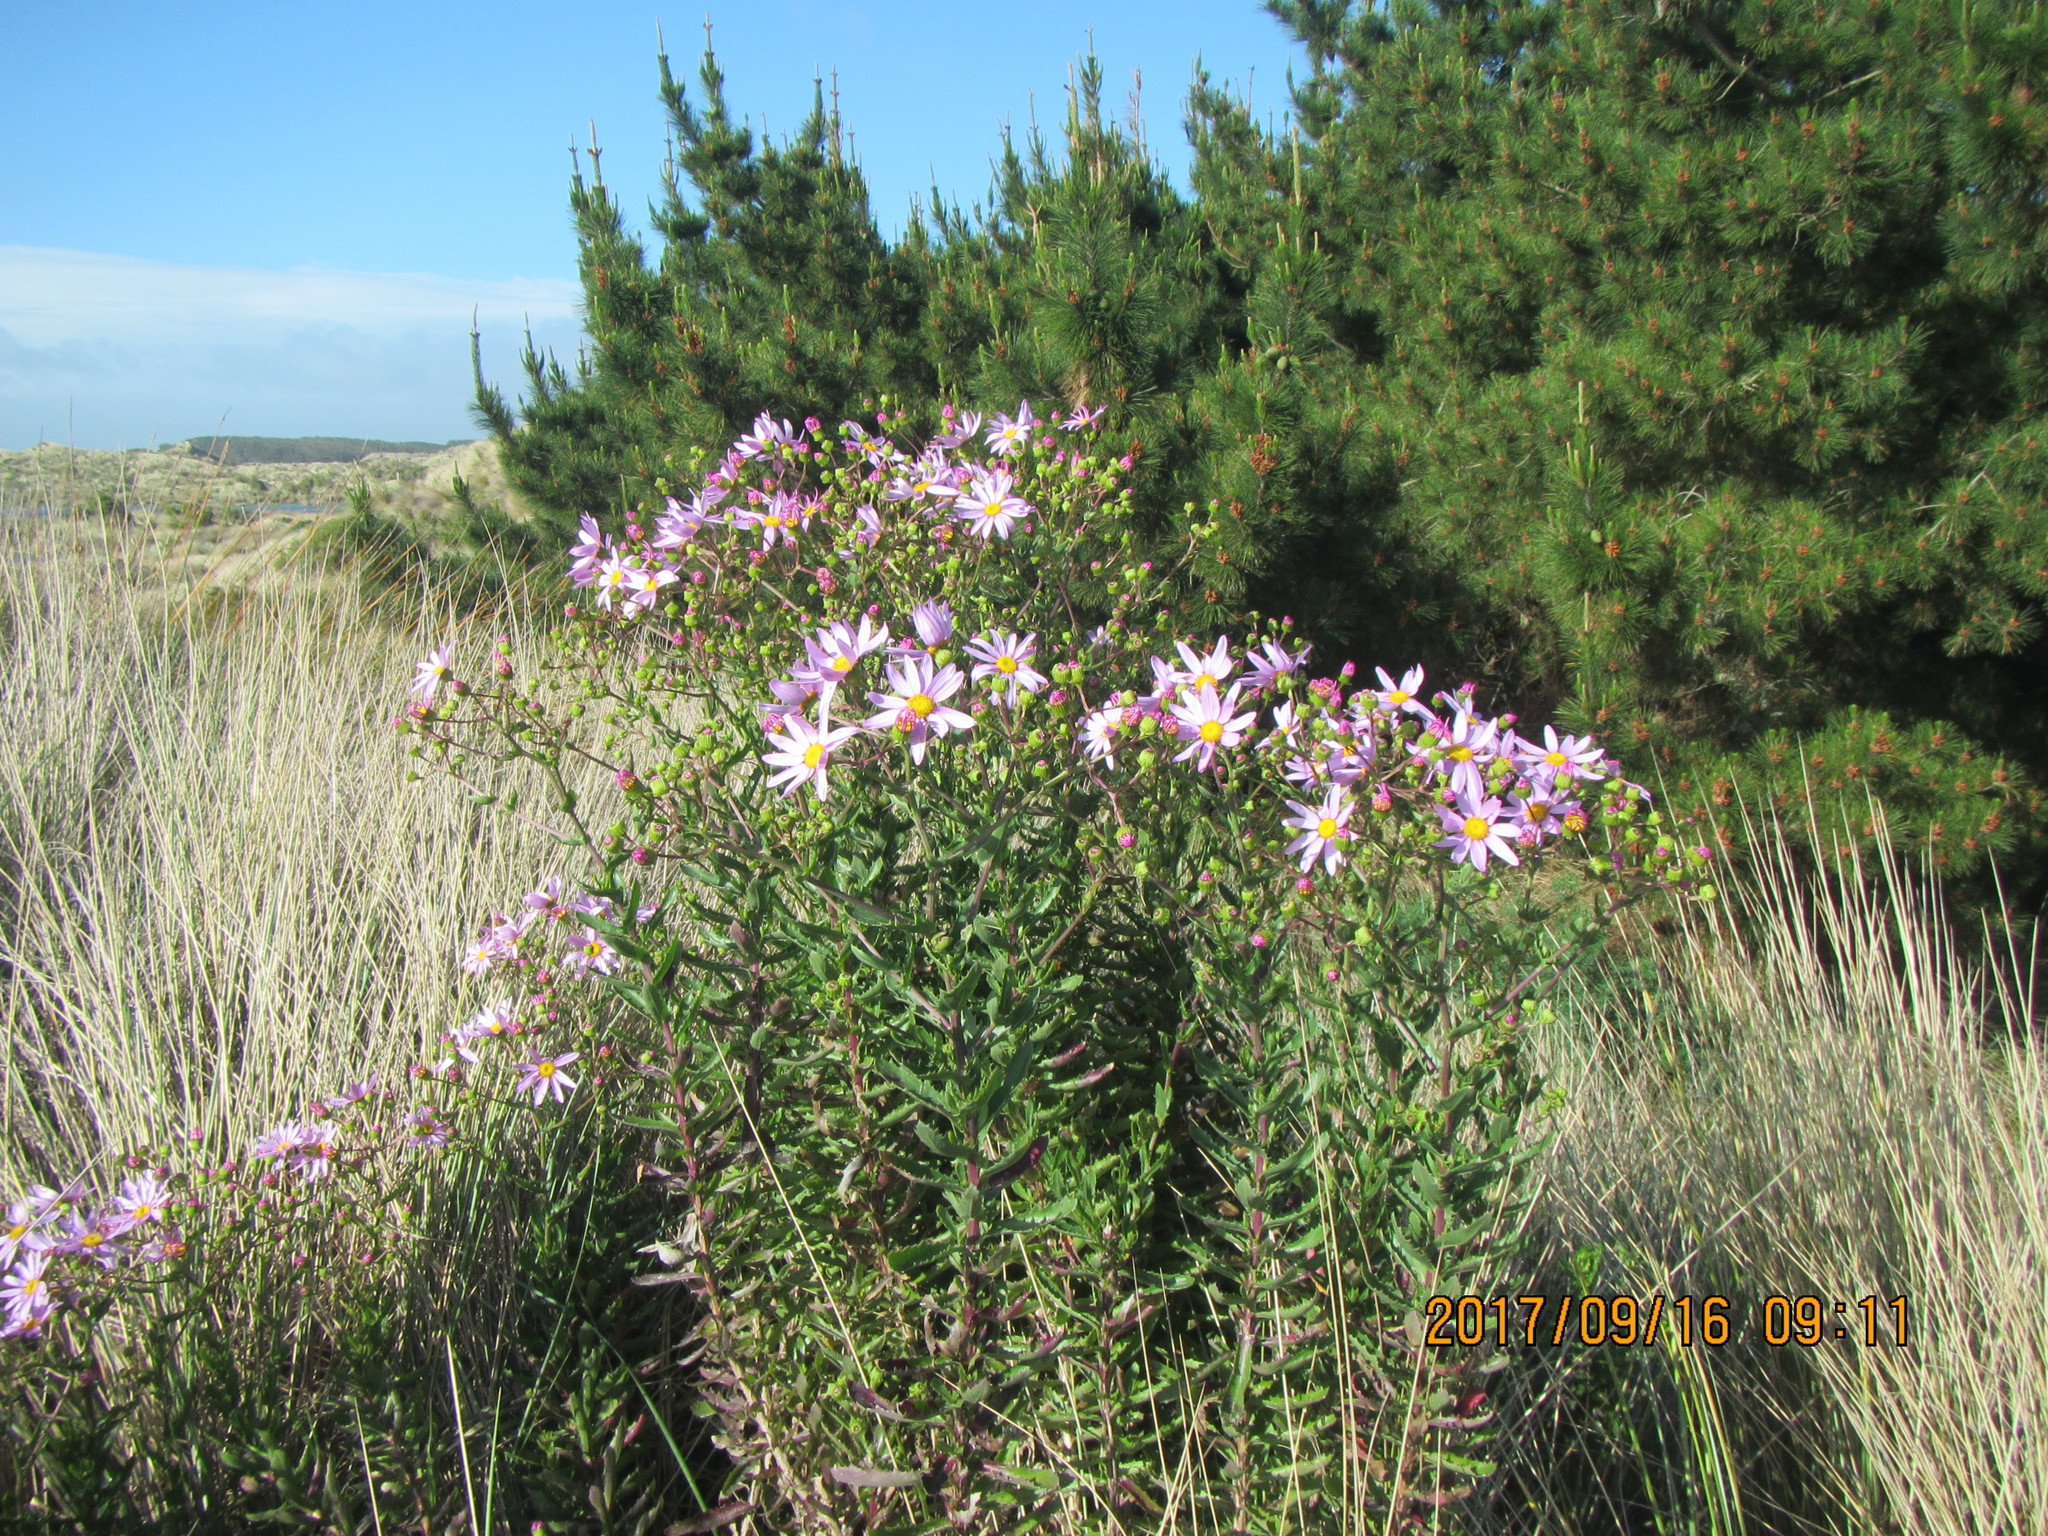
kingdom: Plantae
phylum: Tracheophyta
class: Magnoliopsida
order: Asterales
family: Asteraceae
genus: Senecio
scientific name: Senecio glastifolius
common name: Woad-leaved ragwort
